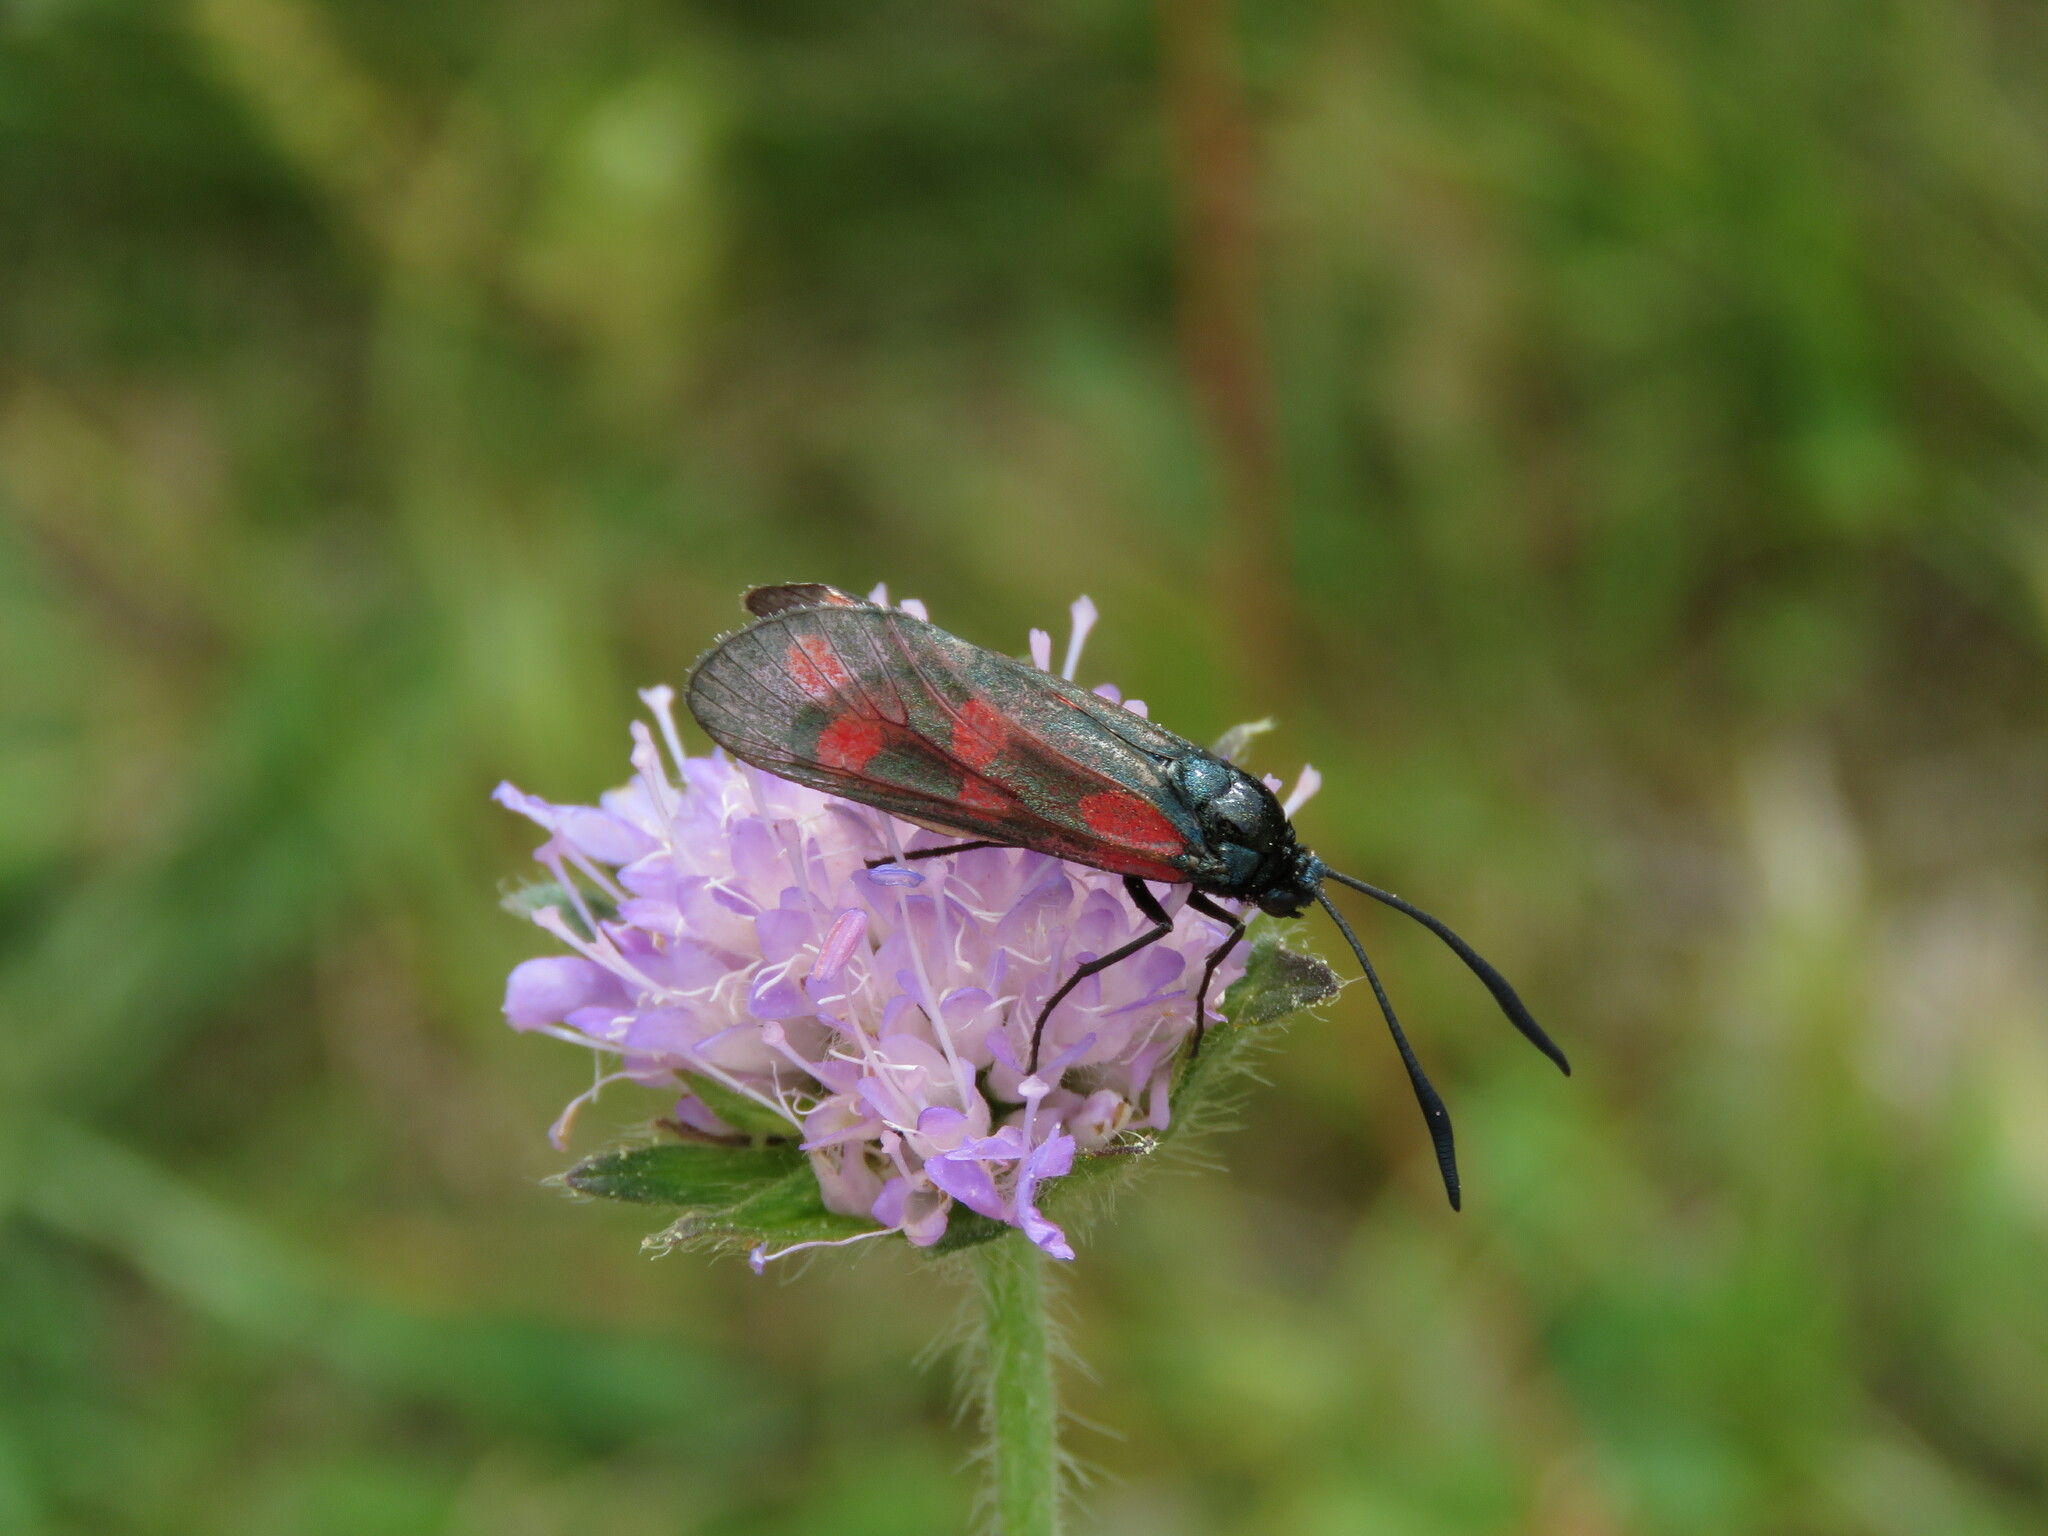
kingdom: Animalia
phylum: Arthropoda
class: Insecta
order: Lepidoptera
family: Zygaenidae
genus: Zygaena
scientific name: Zygaena filipendulae
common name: Six-spot burnet
